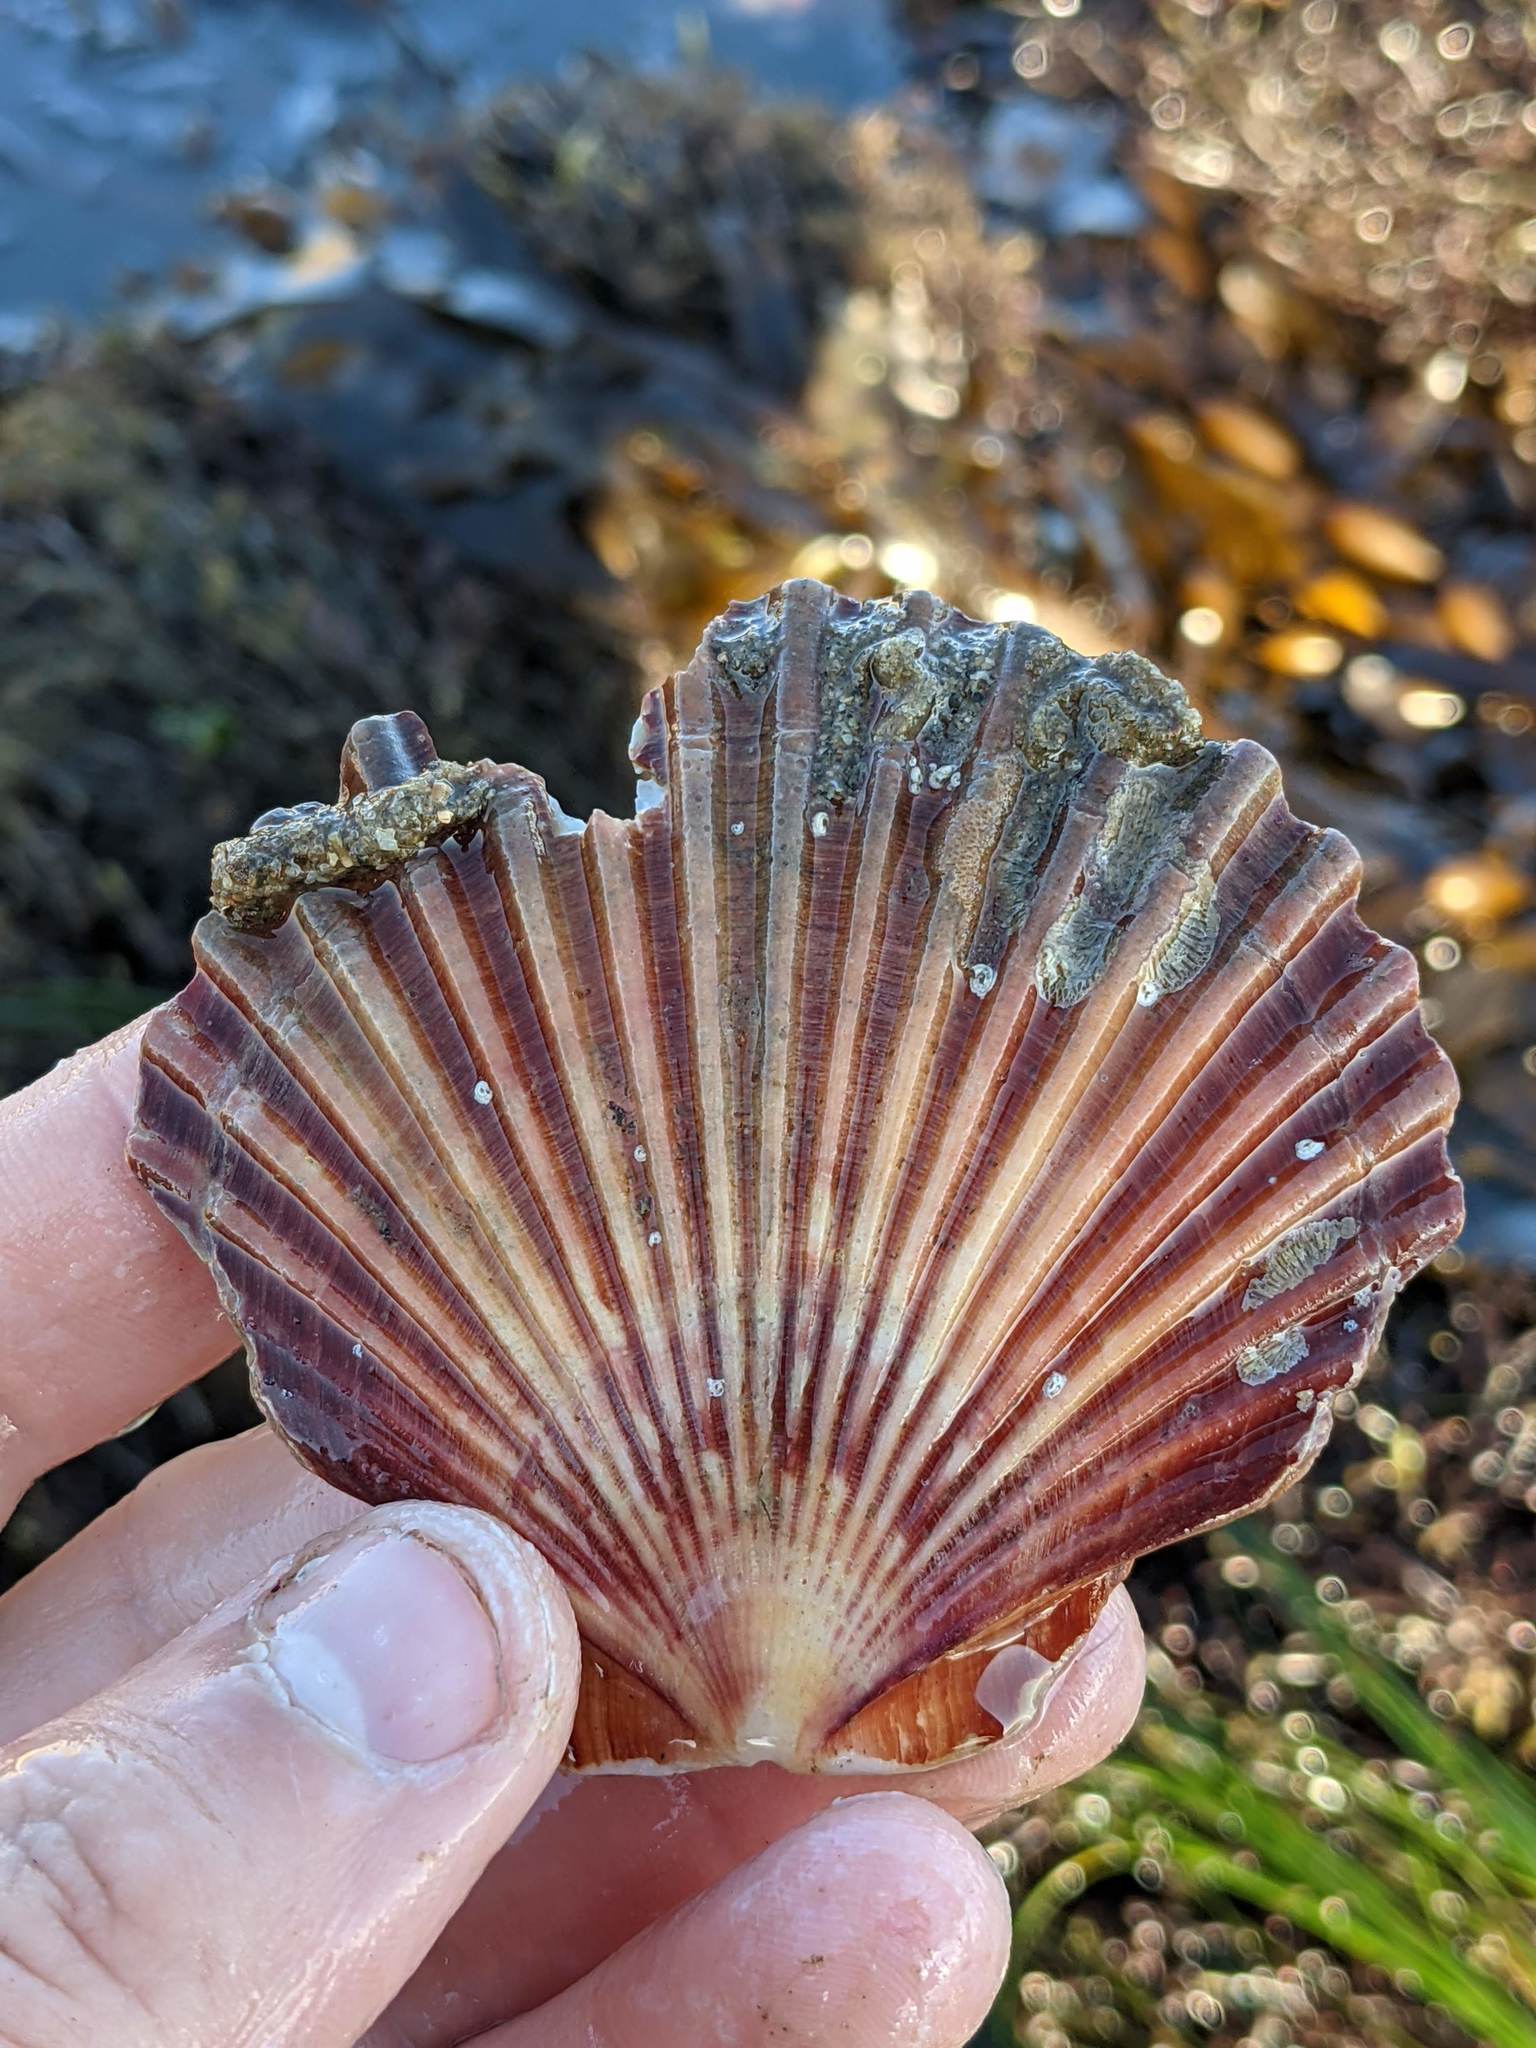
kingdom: Animalia
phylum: Mollusca
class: Bivalvia
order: Pectinida
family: Pectinidae
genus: Leopecten
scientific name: Leopecten diegensis
